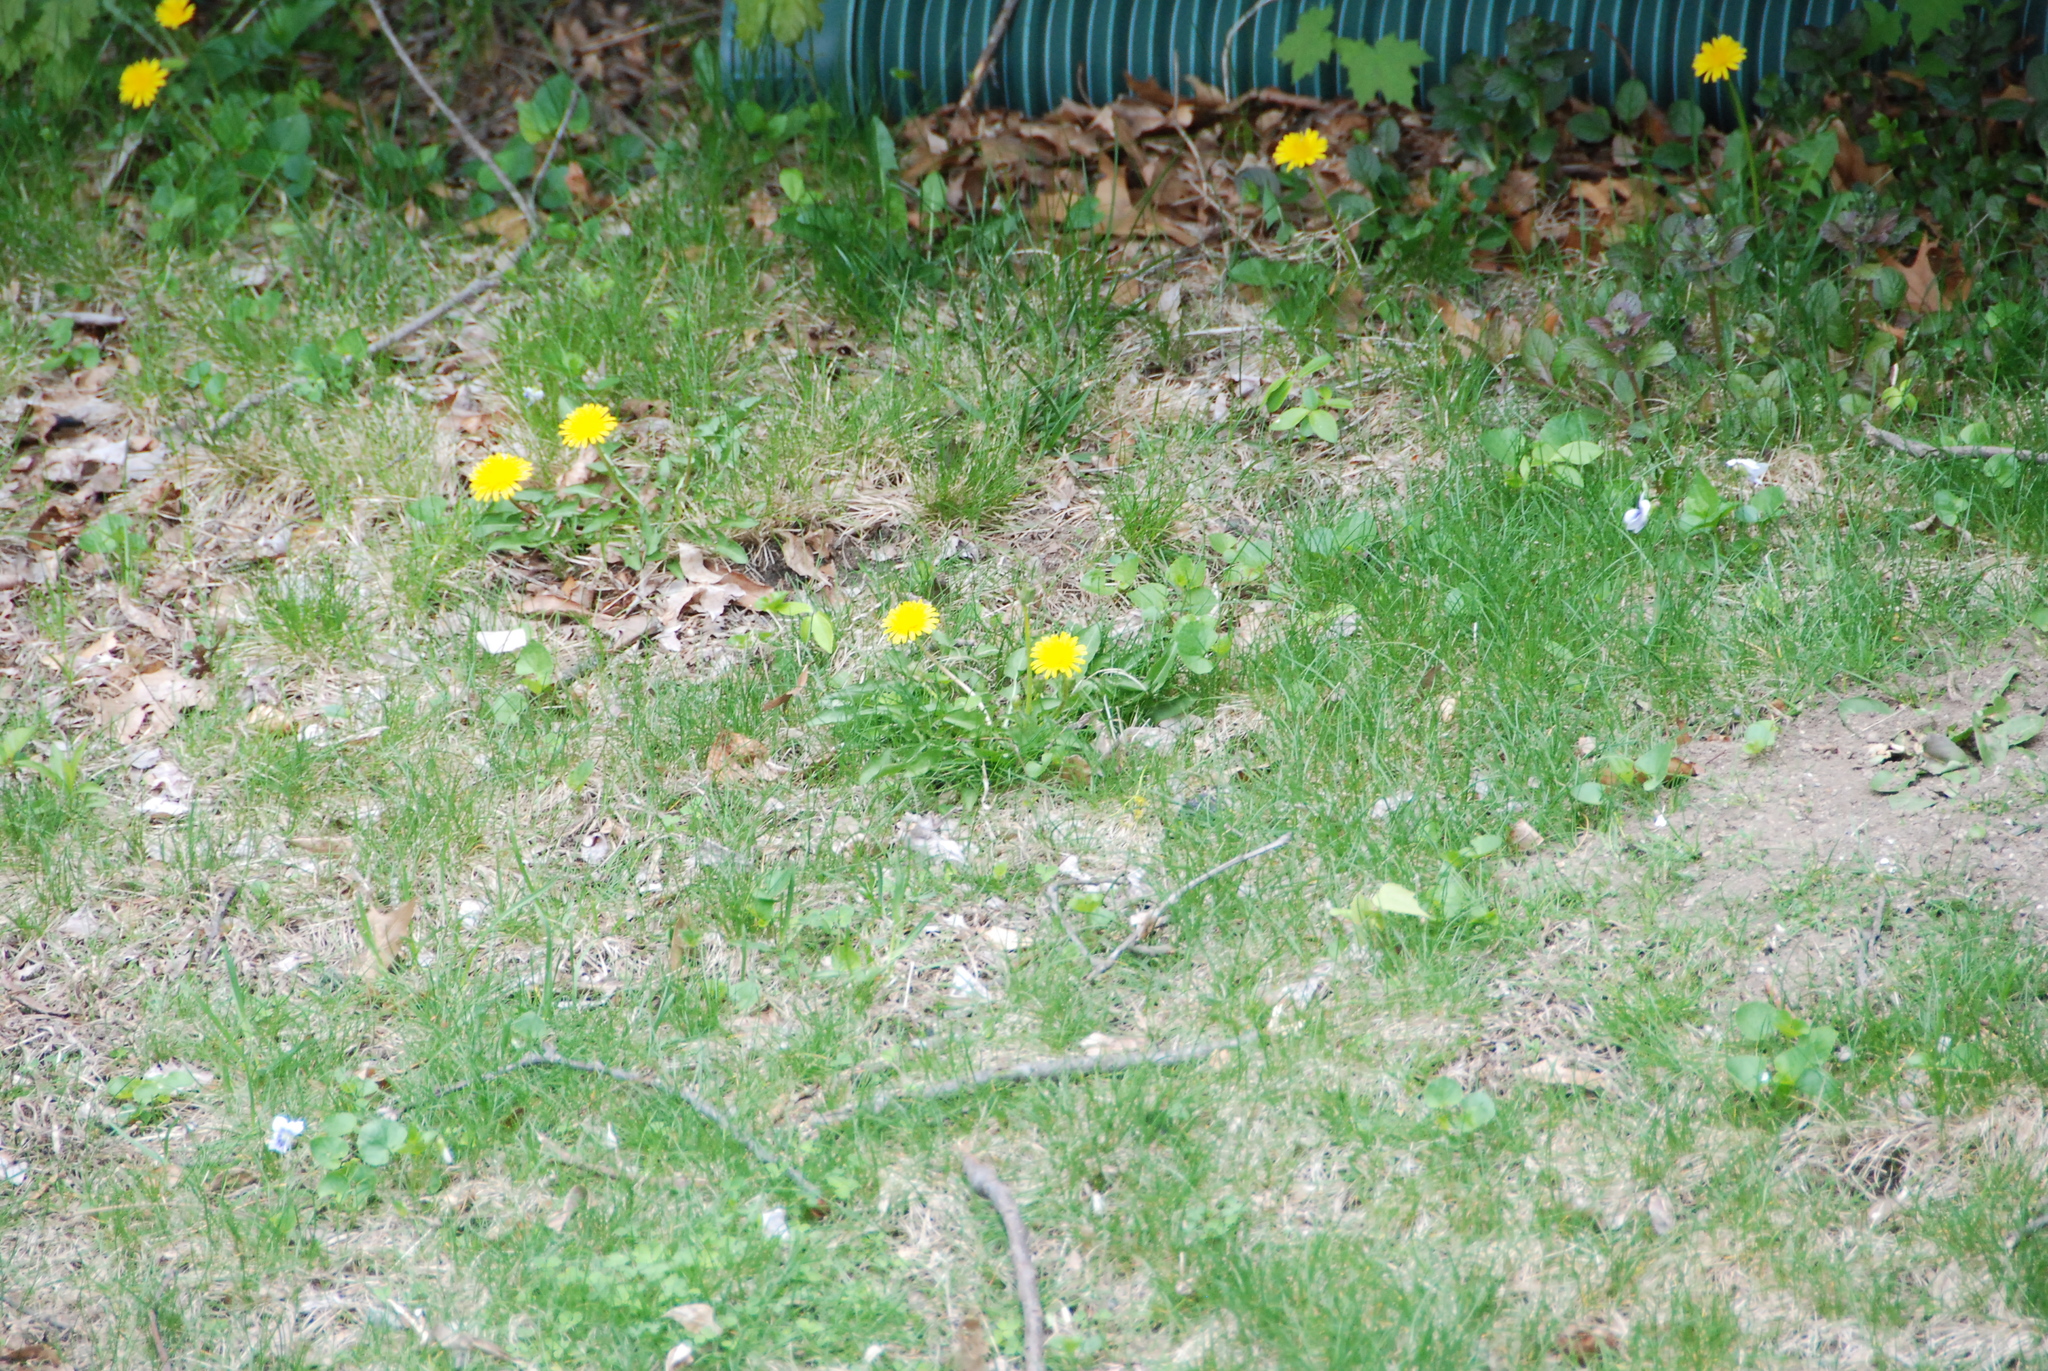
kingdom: Plantae
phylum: Tracheophyta
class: Magnoliopsida
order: Asterales
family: Asteraceae
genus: Taraxacum
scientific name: Taraxacum officinale
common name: Common dandelion
